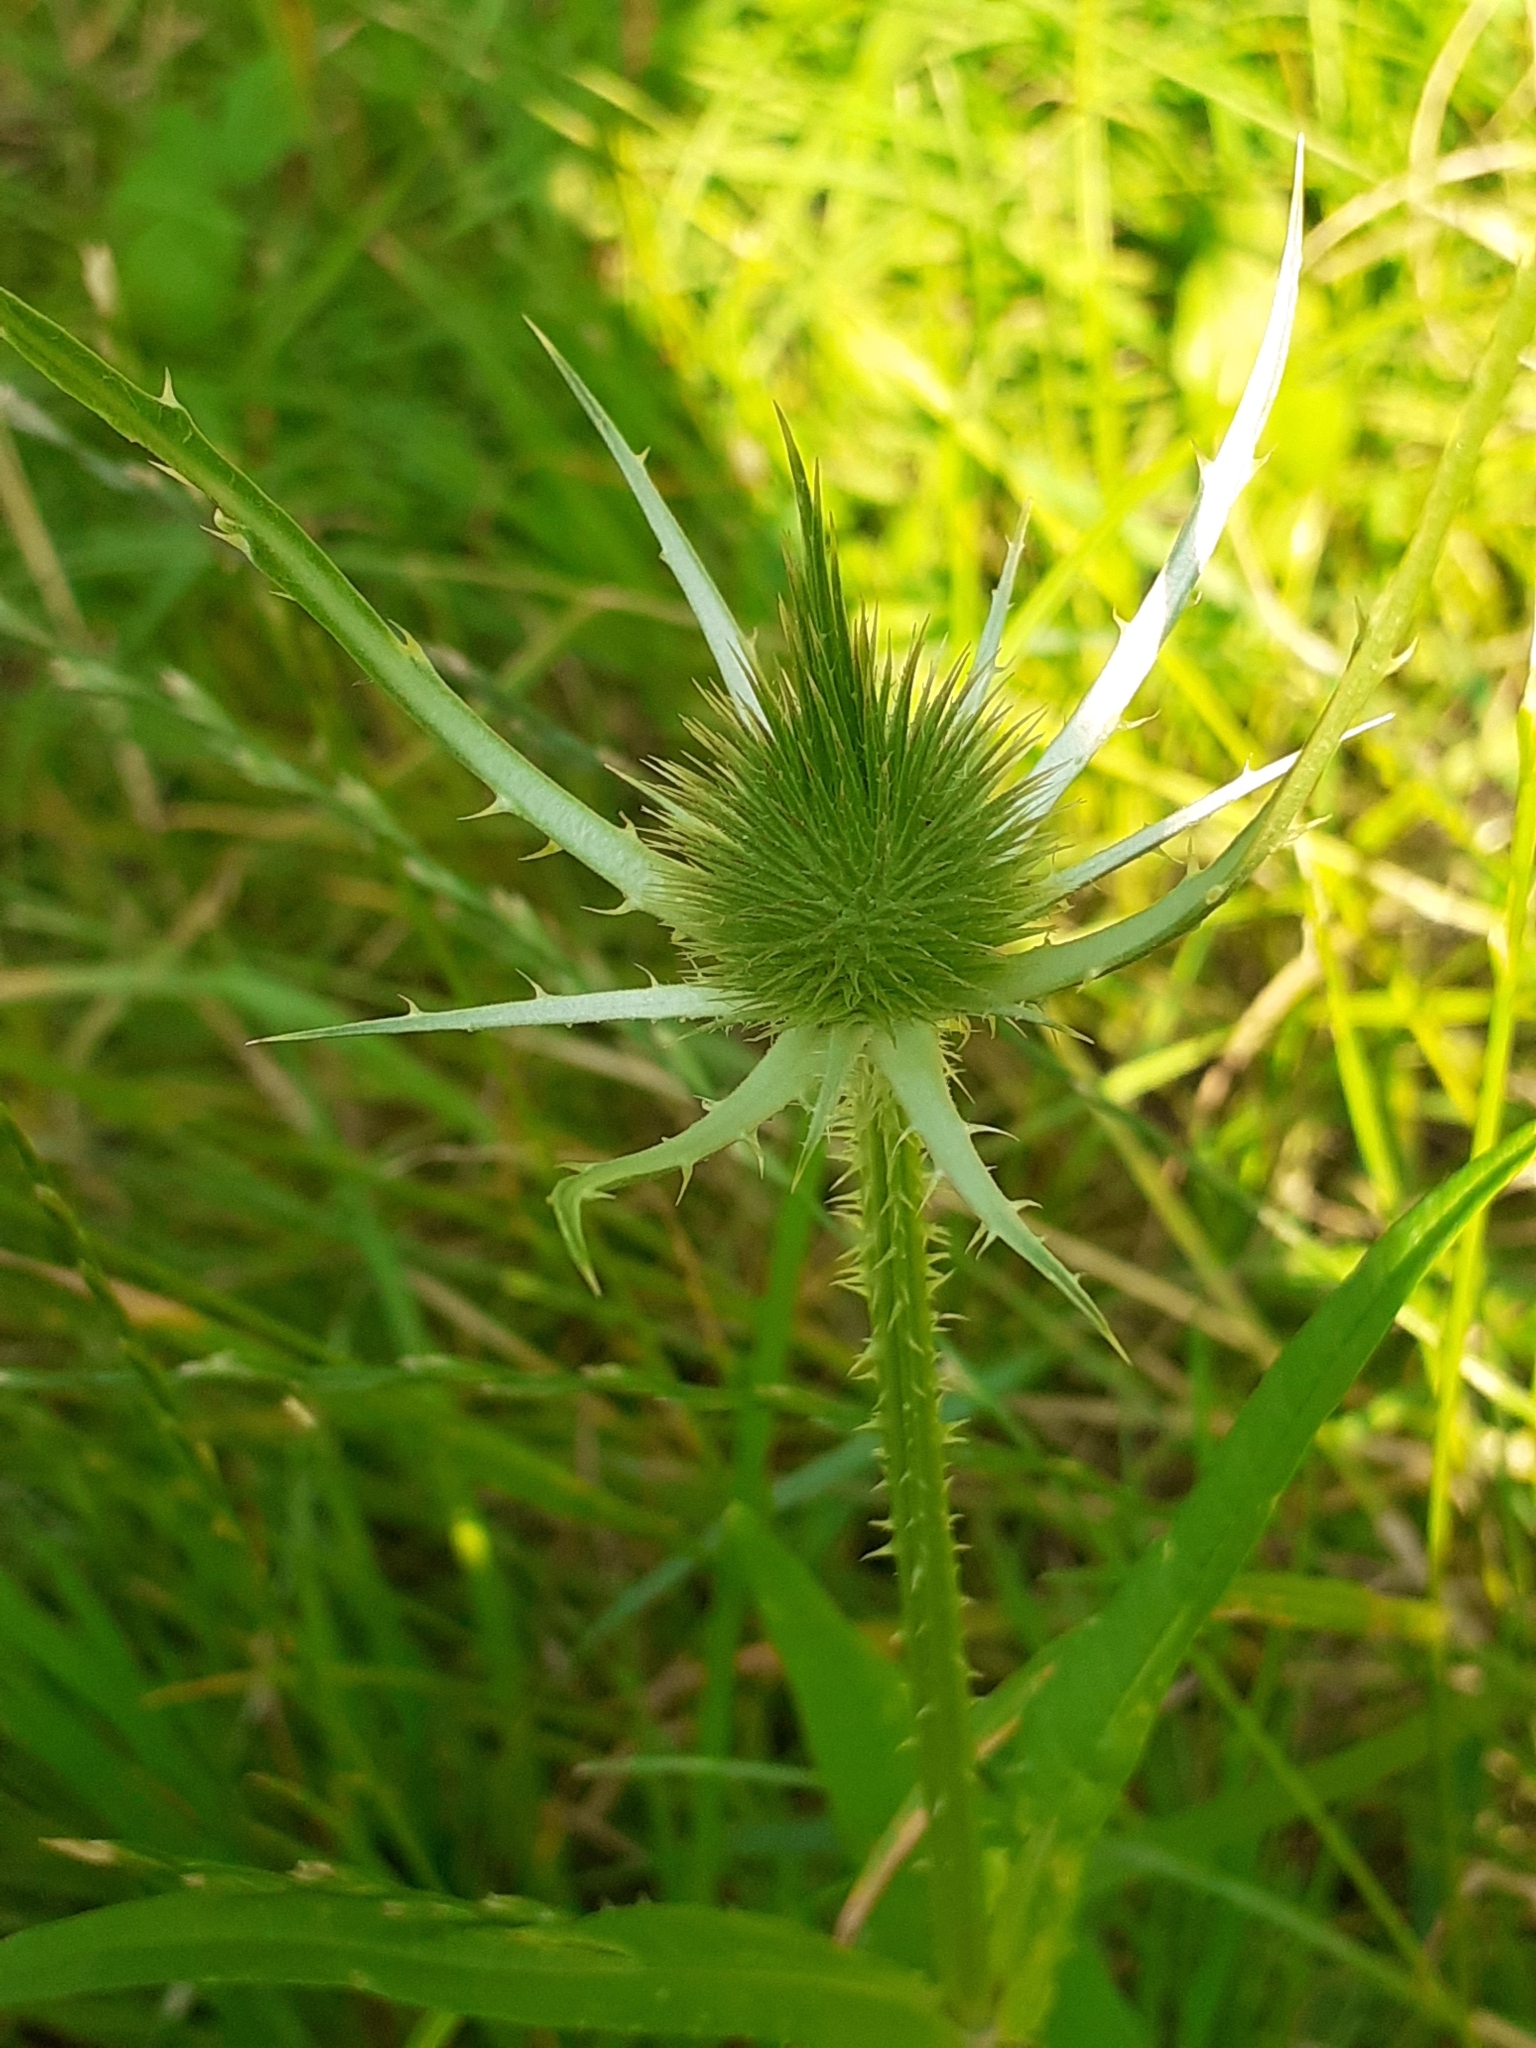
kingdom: Plantae
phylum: Tracheophyta
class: Magnoliopsida
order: Dipsacales
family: Caprifoliaceae
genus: Dipsacus
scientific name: Dipsacus fullonum
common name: Teasel
